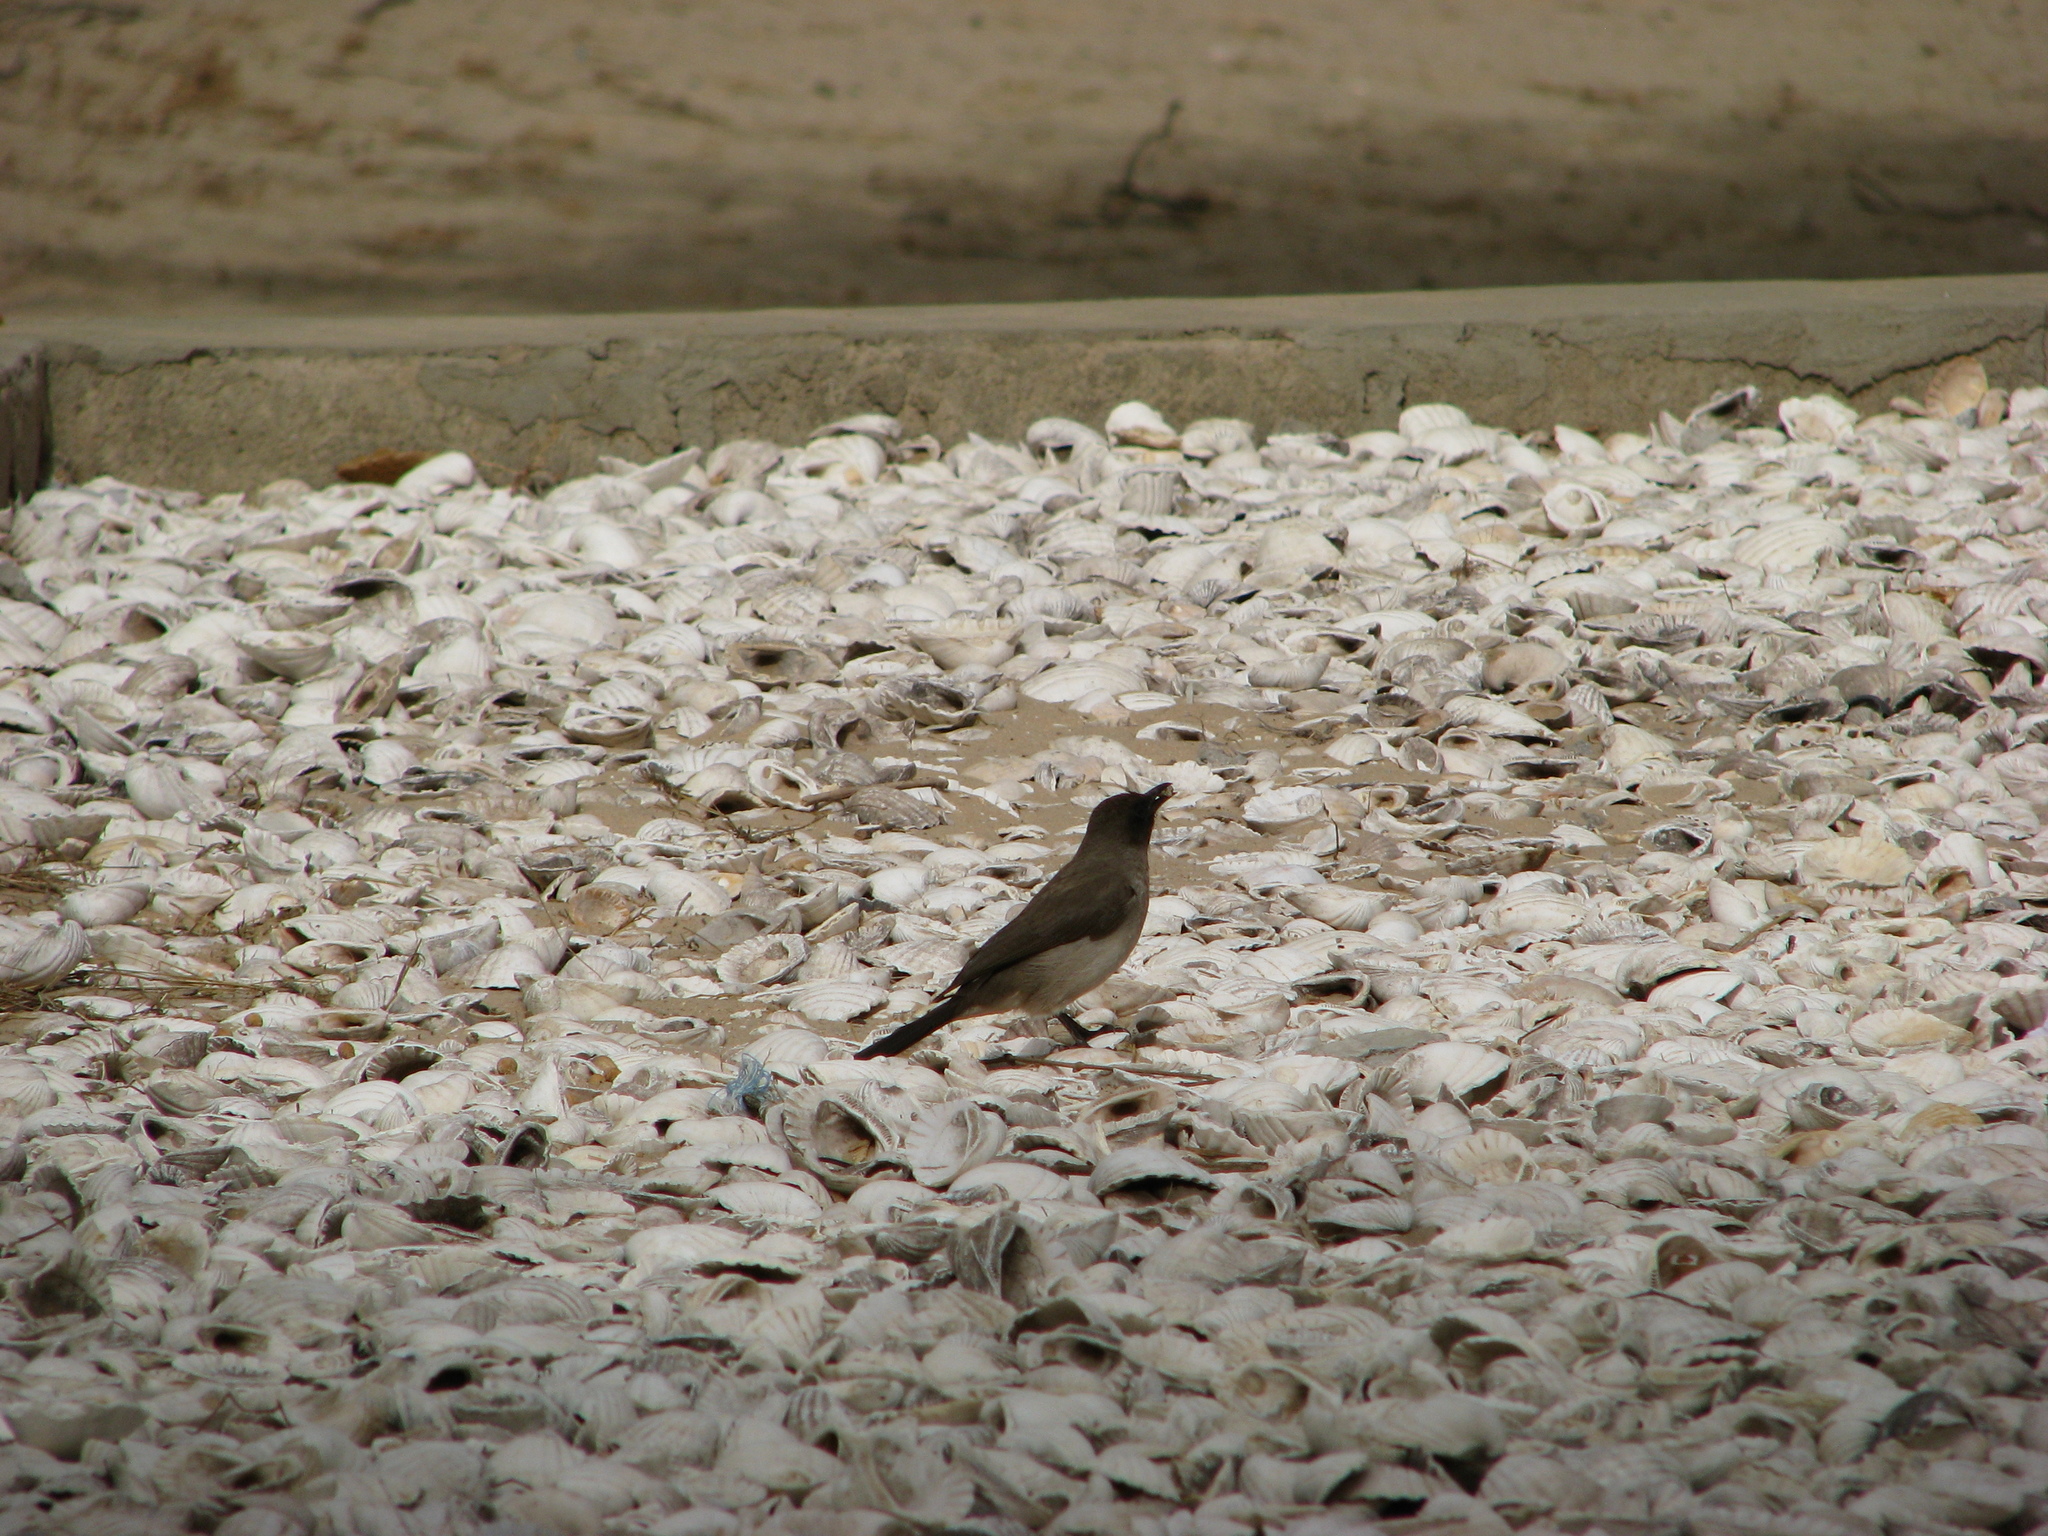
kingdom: Animalia
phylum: Chordata
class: Aves
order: Passeriformes
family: Pycnonotidae
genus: Pycnonotus
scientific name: Pycnonotus barbatus
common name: Common bulbul
